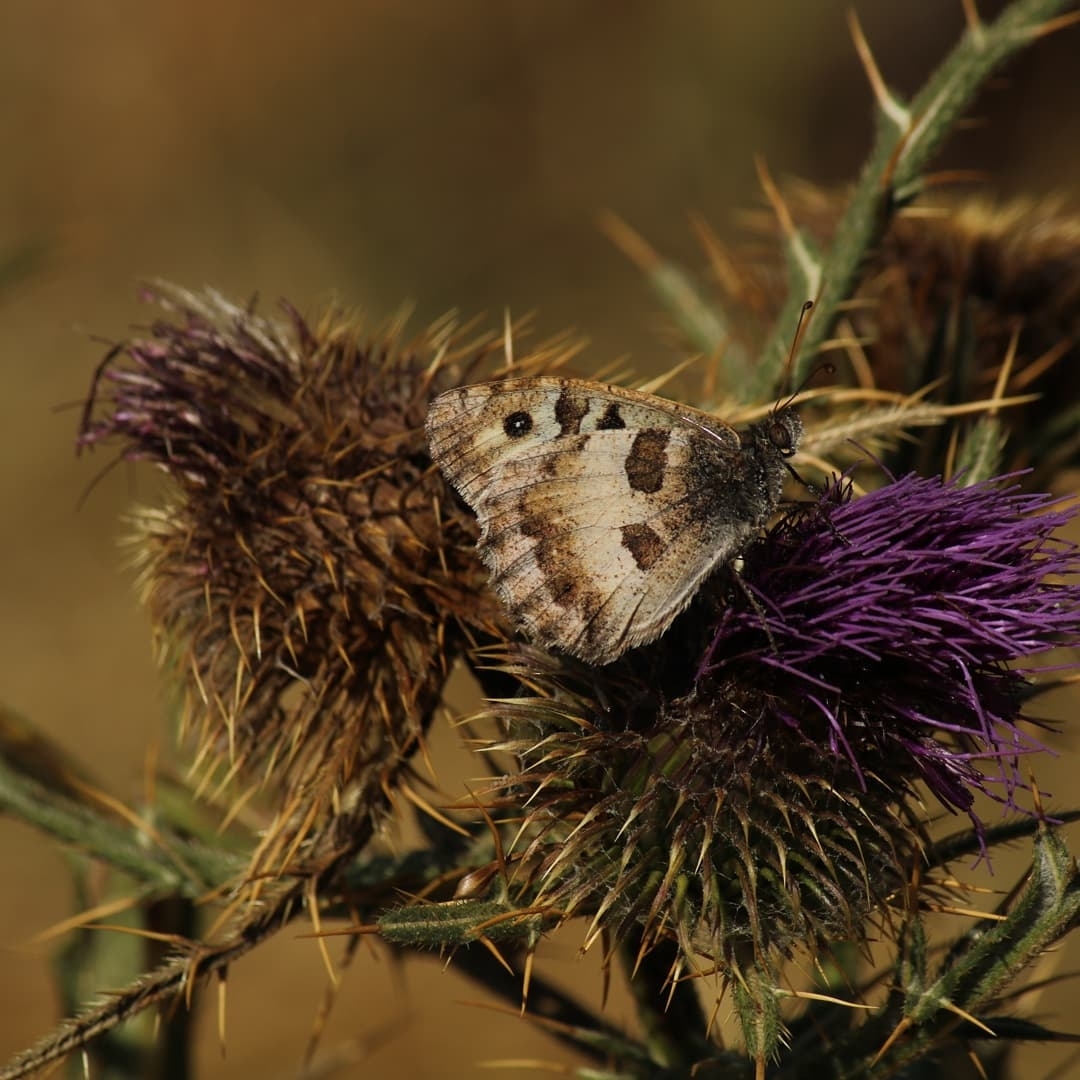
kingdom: Animalia
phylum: Arthropoda
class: Insecta
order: Lepidoptera
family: Nymphalidae
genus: Satyrus
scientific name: Satyrus briseis
